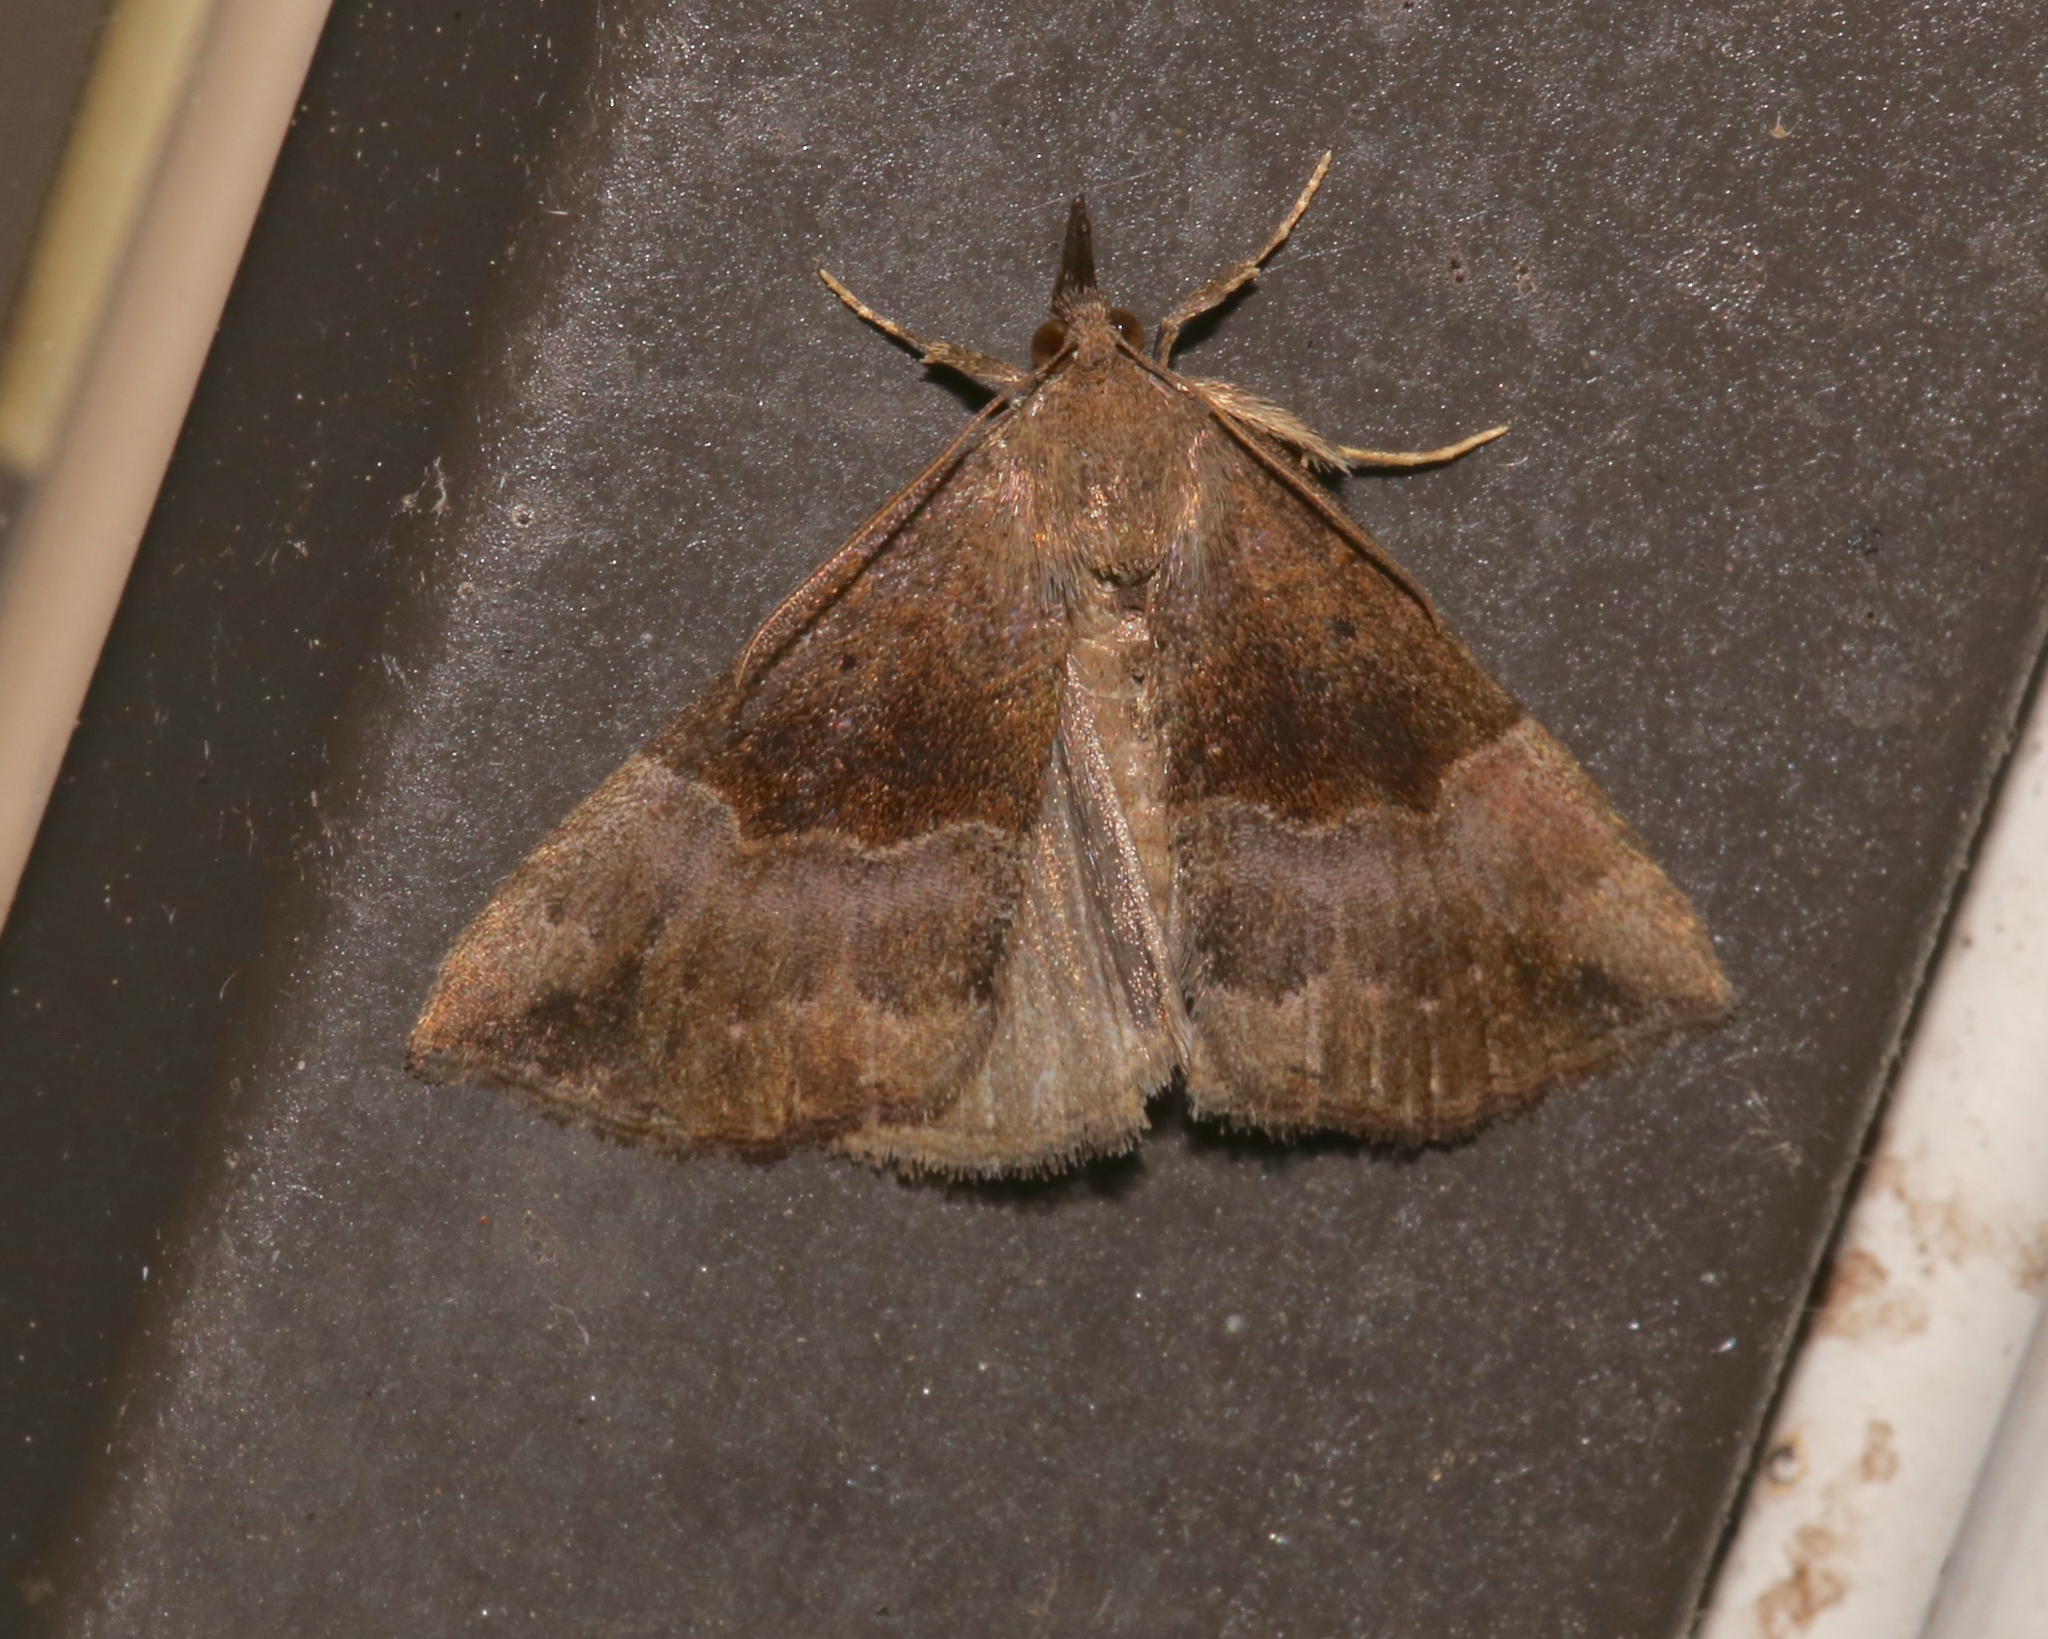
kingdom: Animalia
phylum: Arthropoda
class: Insecta
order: Lepidoptera
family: Erebidae
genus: Hypena
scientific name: Hypena madefactalis
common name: Gray-edged snout
